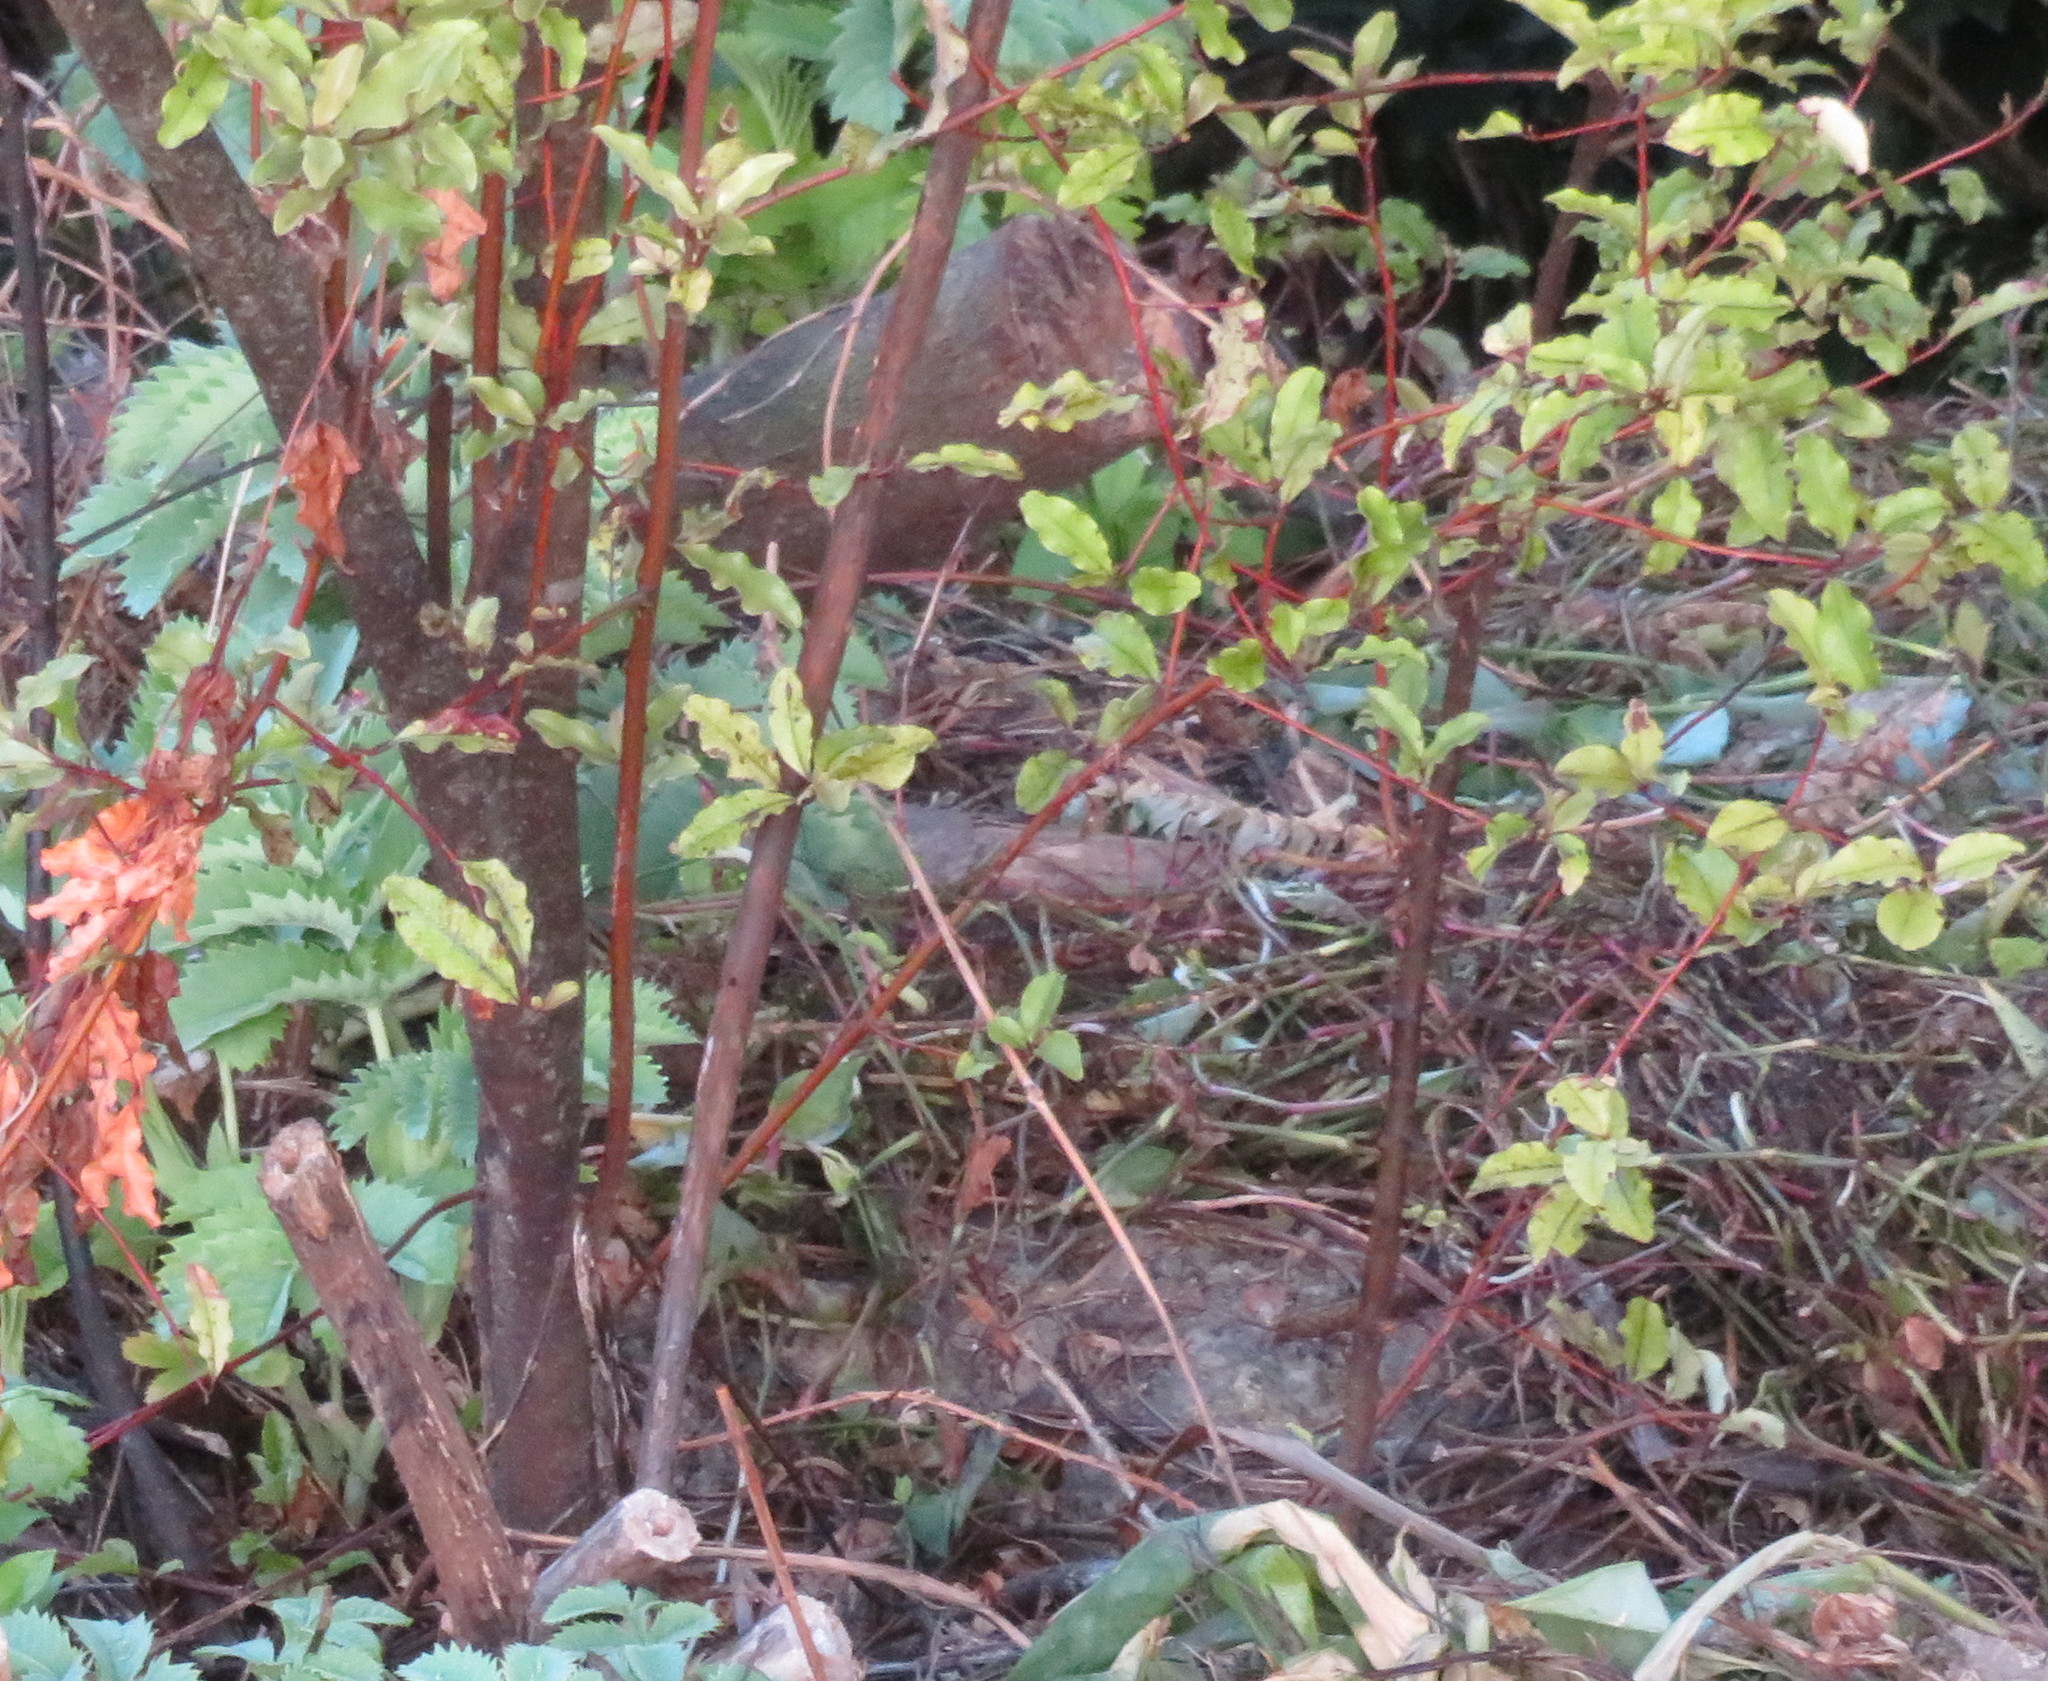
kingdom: Plantae
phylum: Tracheophyta
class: Magnoliopsida
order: Ericales
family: Primulaceae
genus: Myrsine
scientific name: Myrsine australis
